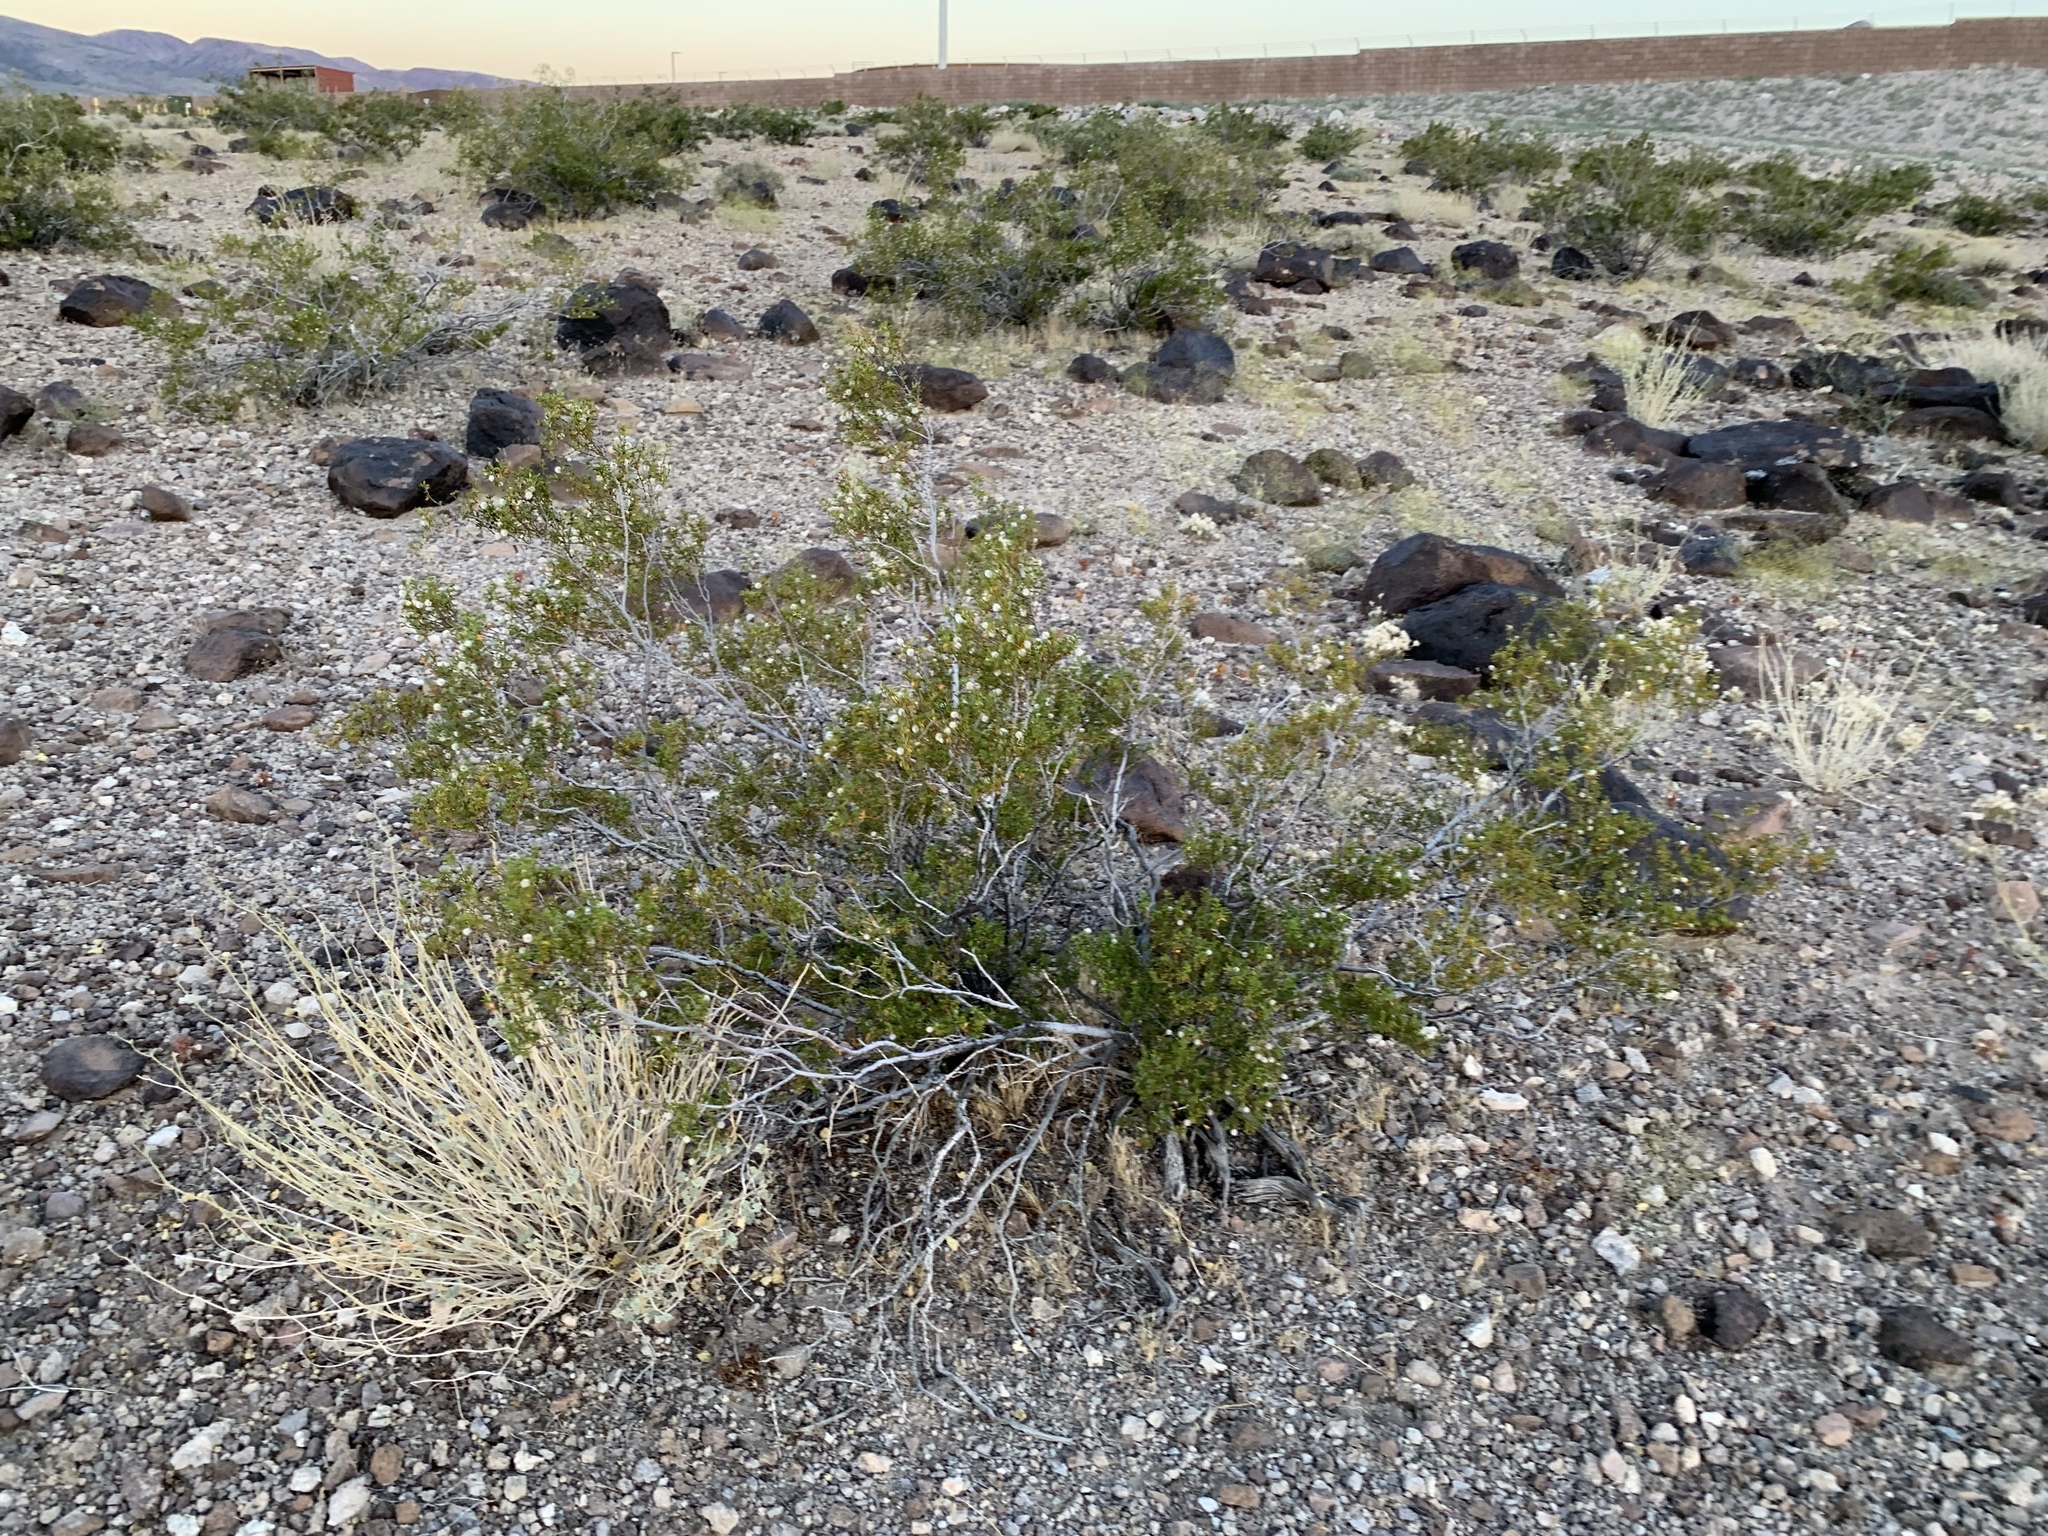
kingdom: Plantae
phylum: Tracheophyta
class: Magnoliopsida
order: Zygophyllales
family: Zygophyllaceae
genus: Larrea
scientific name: Larrea tridentata
